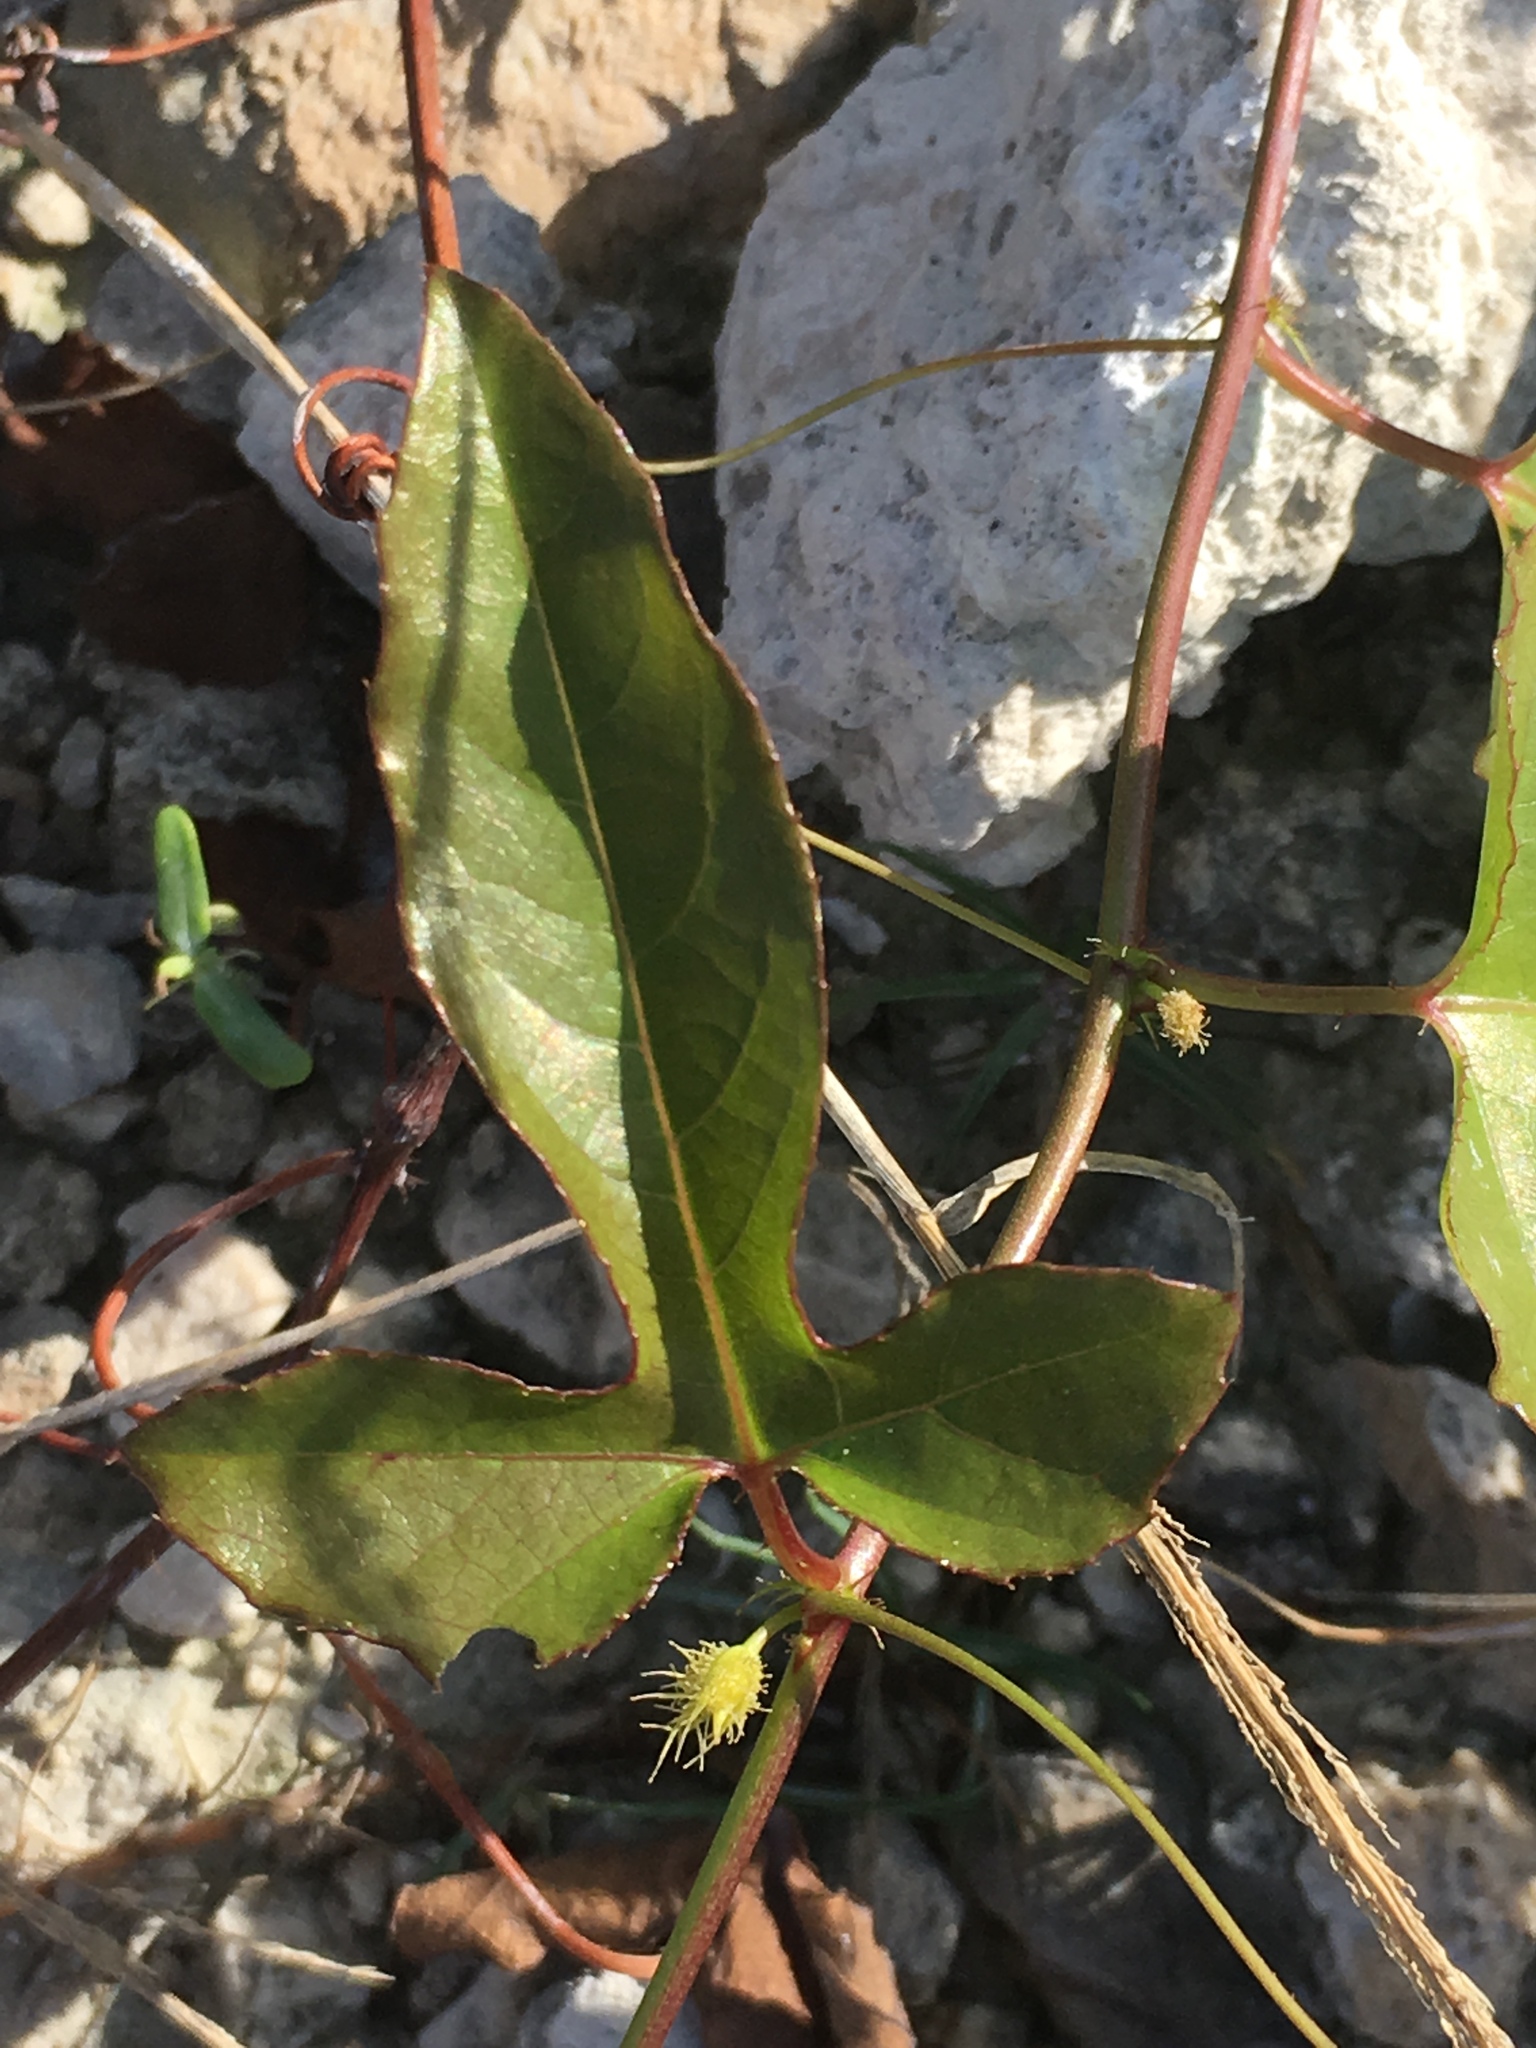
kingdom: Plantae
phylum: Tracheophyta
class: Magnoliopsida
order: Malpighiales
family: Passifloraceae
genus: Passiflora
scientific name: Passiflora ciliata
